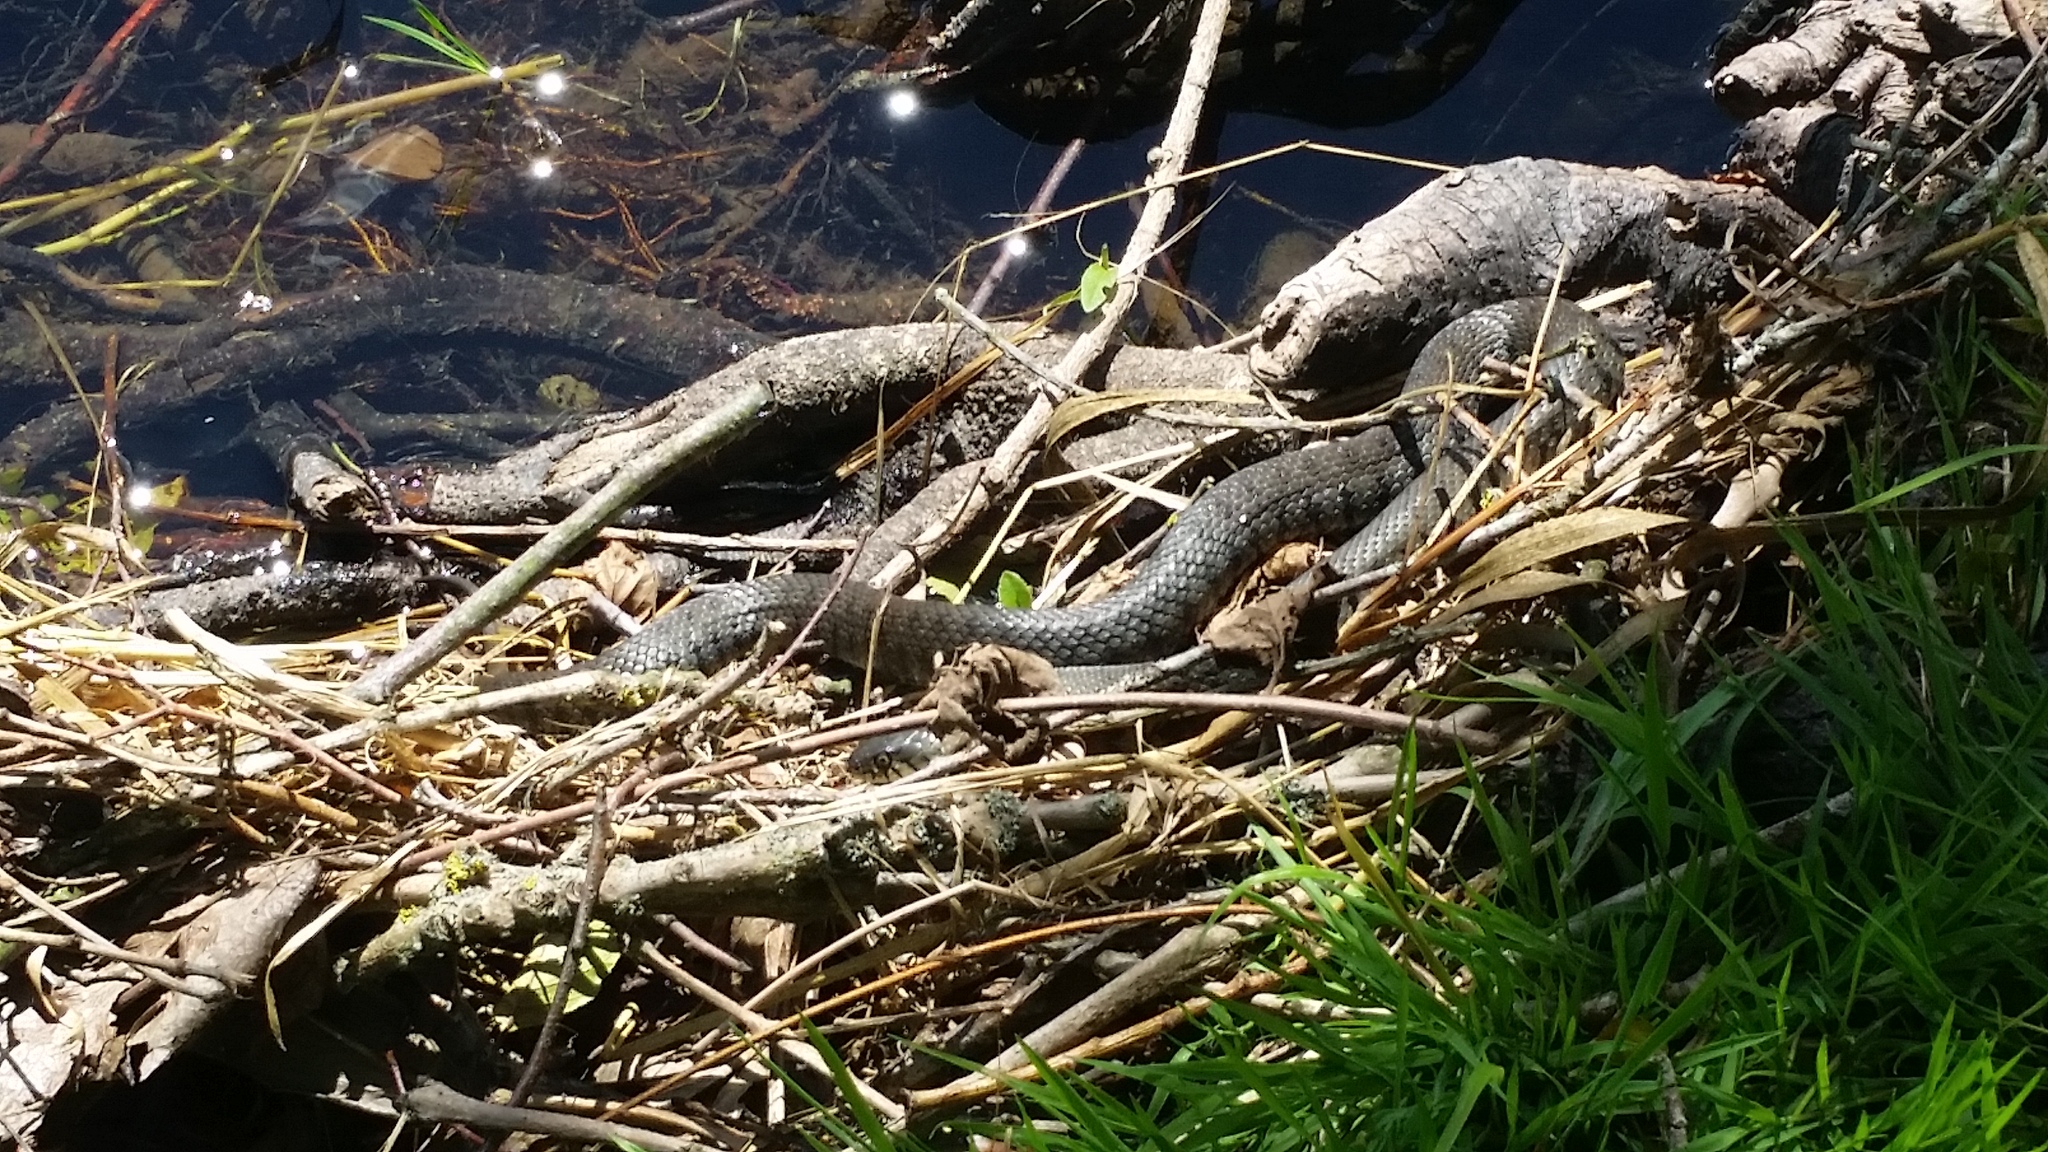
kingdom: Animalia
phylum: Chordata
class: Squamata
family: Colubridae
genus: Natrix
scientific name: Natrix helvetica
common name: Banded grass snake
